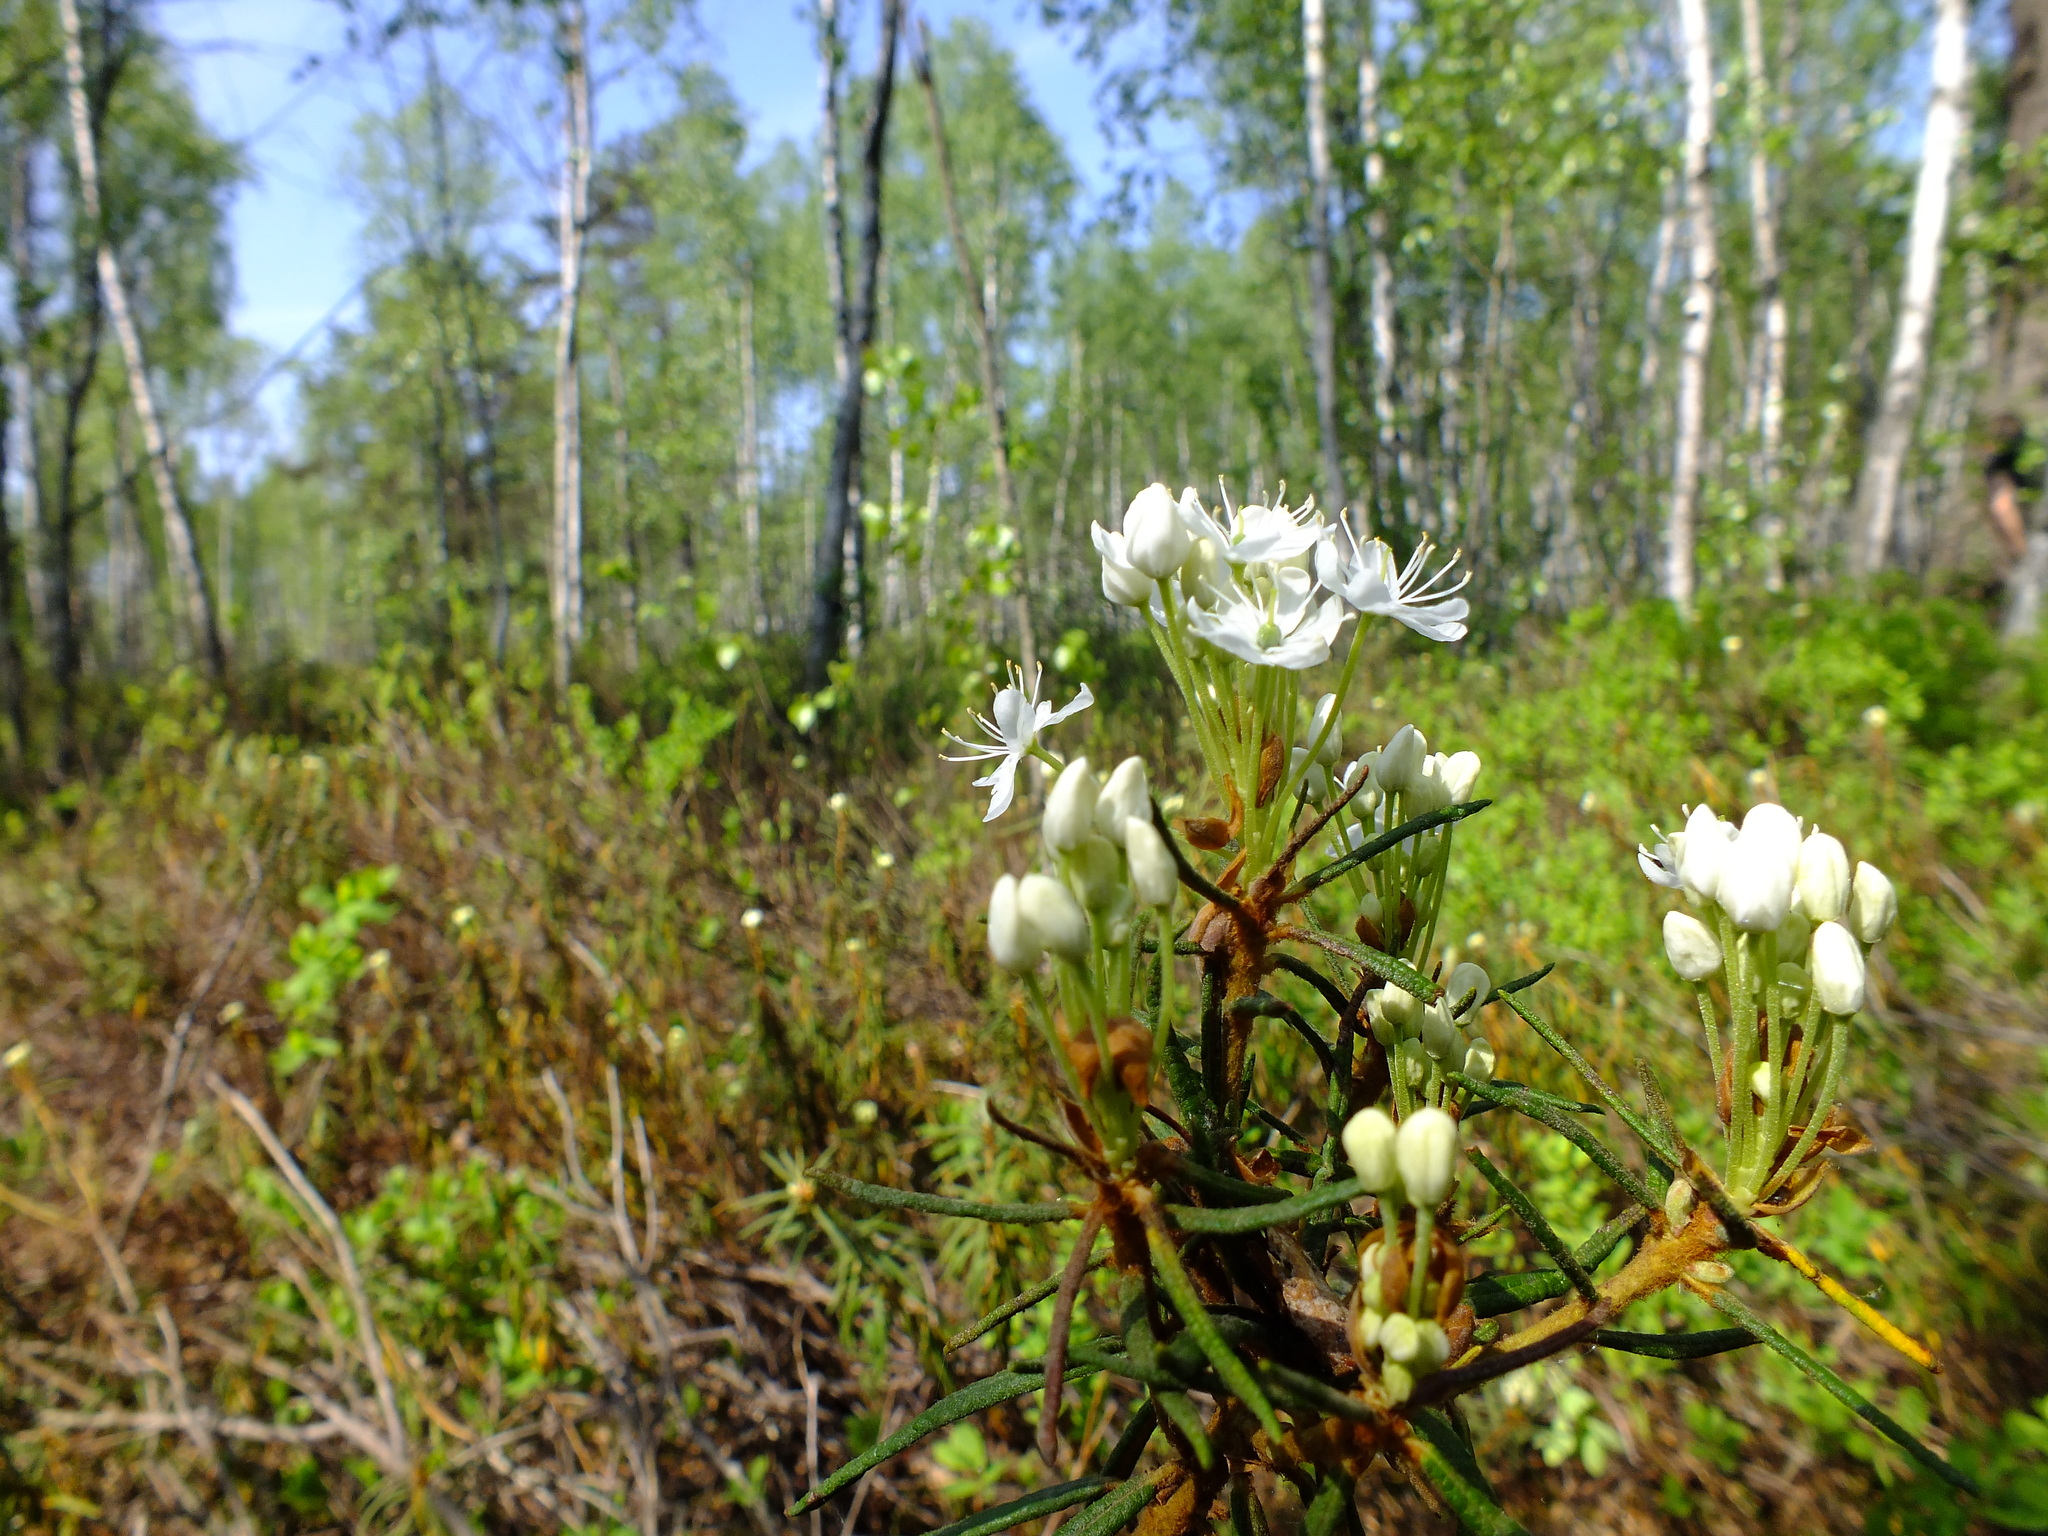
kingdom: Plantae
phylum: Tracheophyta
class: Magnoliopsida
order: Ericales
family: Ericaceae
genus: Rhododendron
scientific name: Rhododendron tomentosum
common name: Marsh labrador tea
